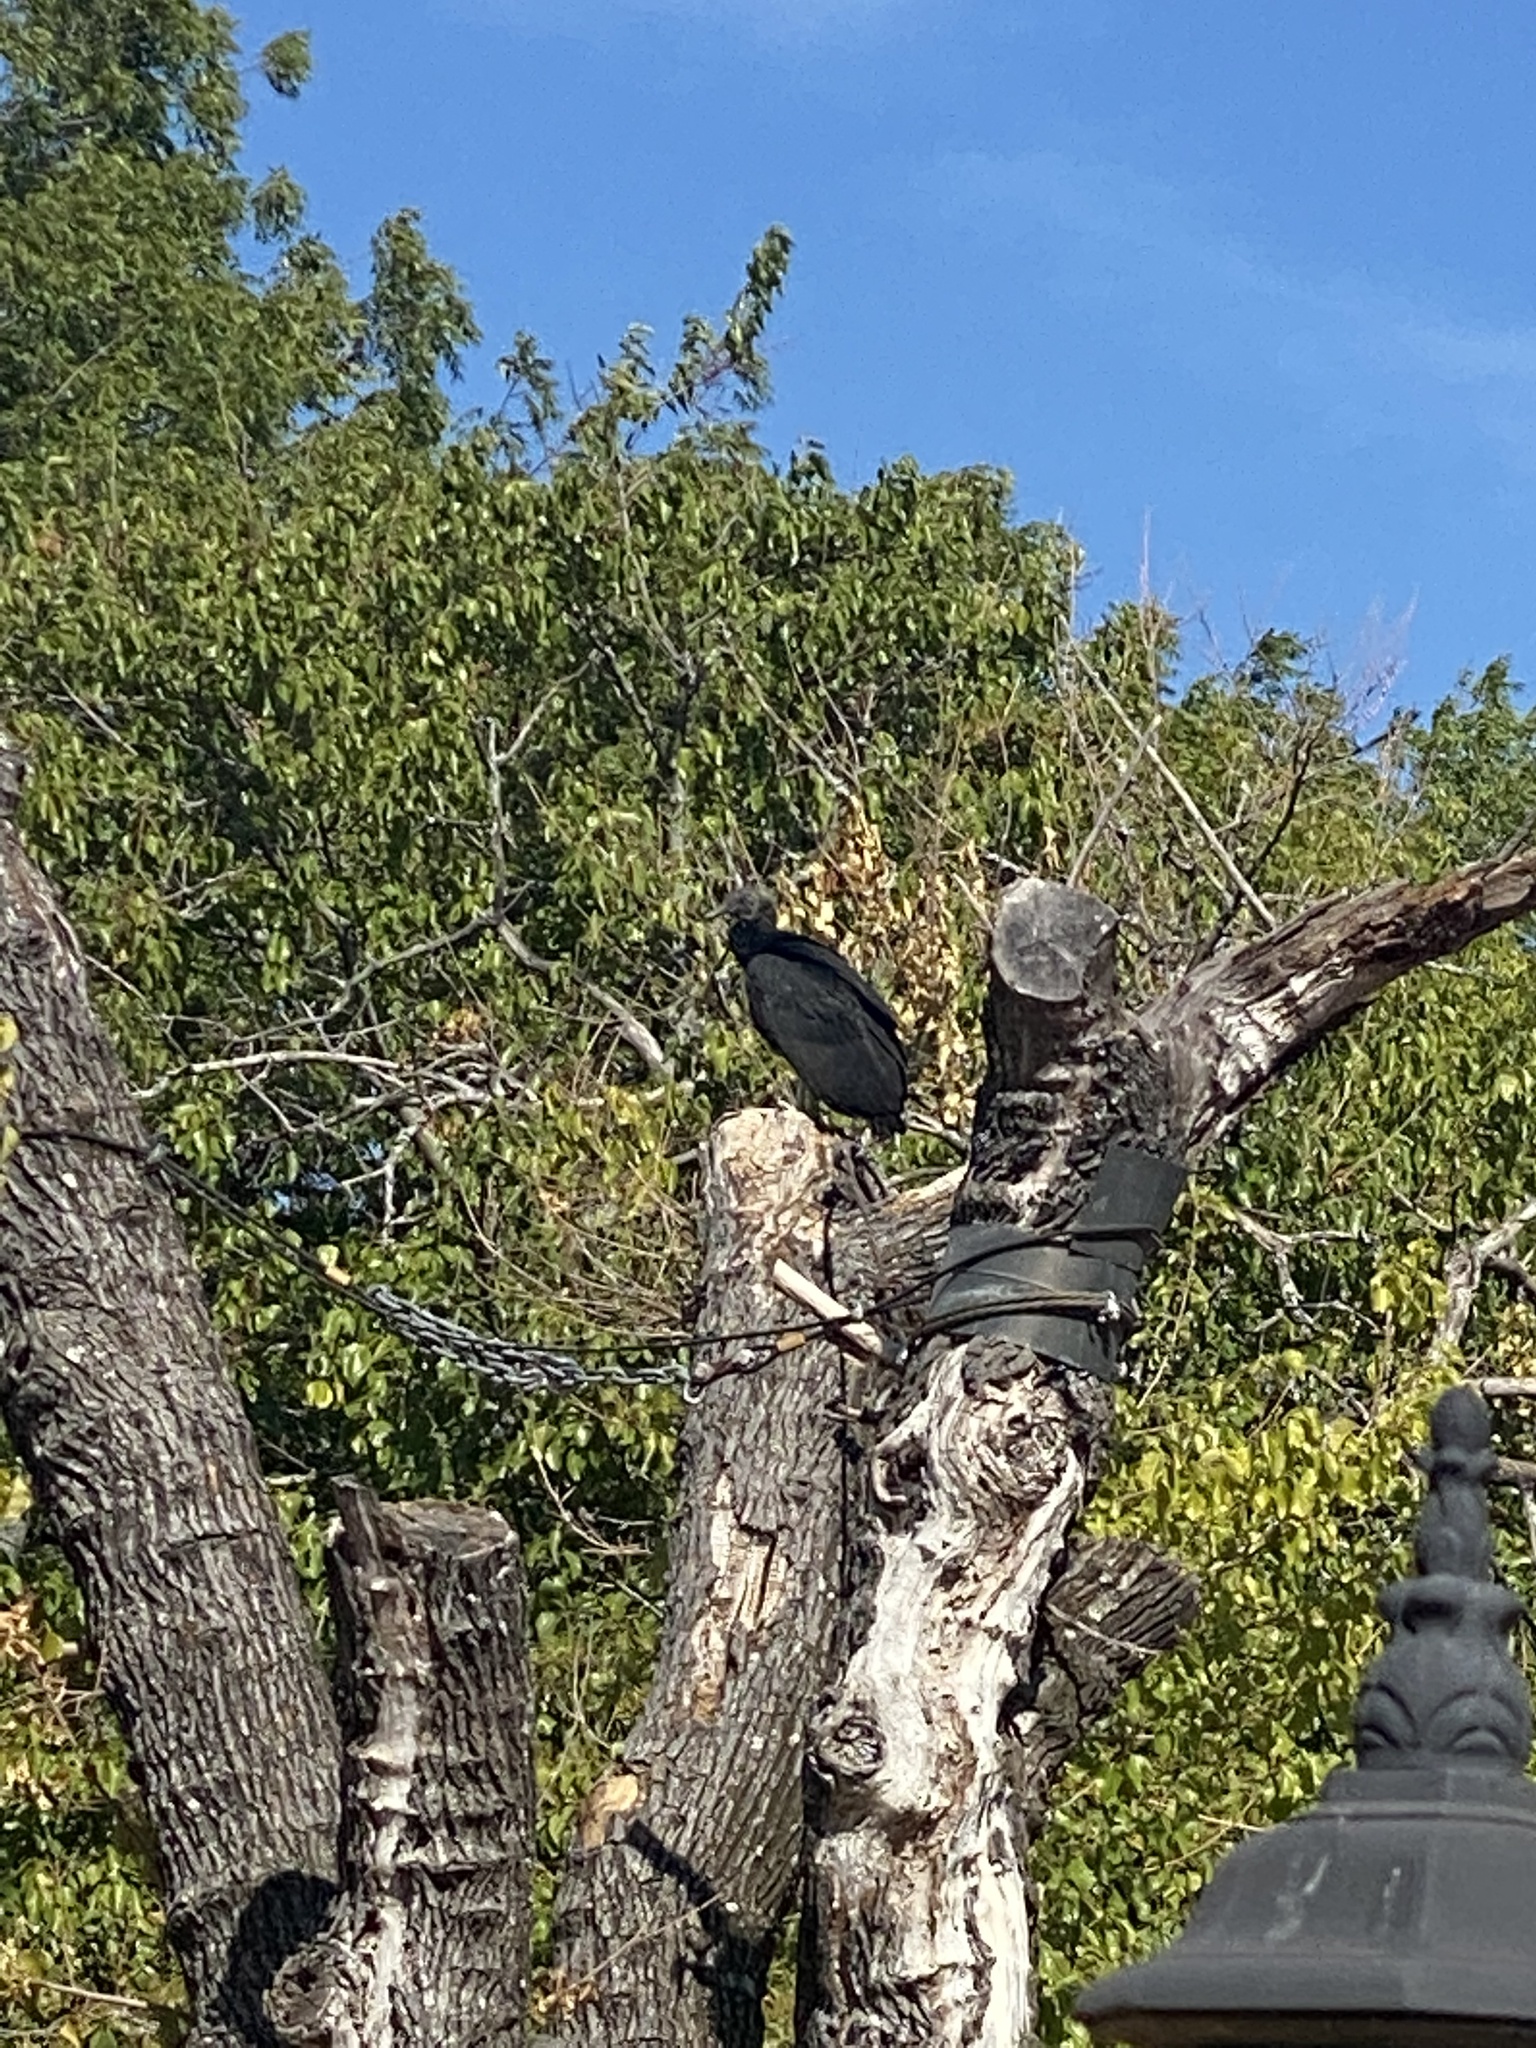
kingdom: Animalia
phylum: Chordata
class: Aves
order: Accipitriformes
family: Cathartidae
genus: Coragyps
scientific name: Coragyps atratus
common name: Black vulture
